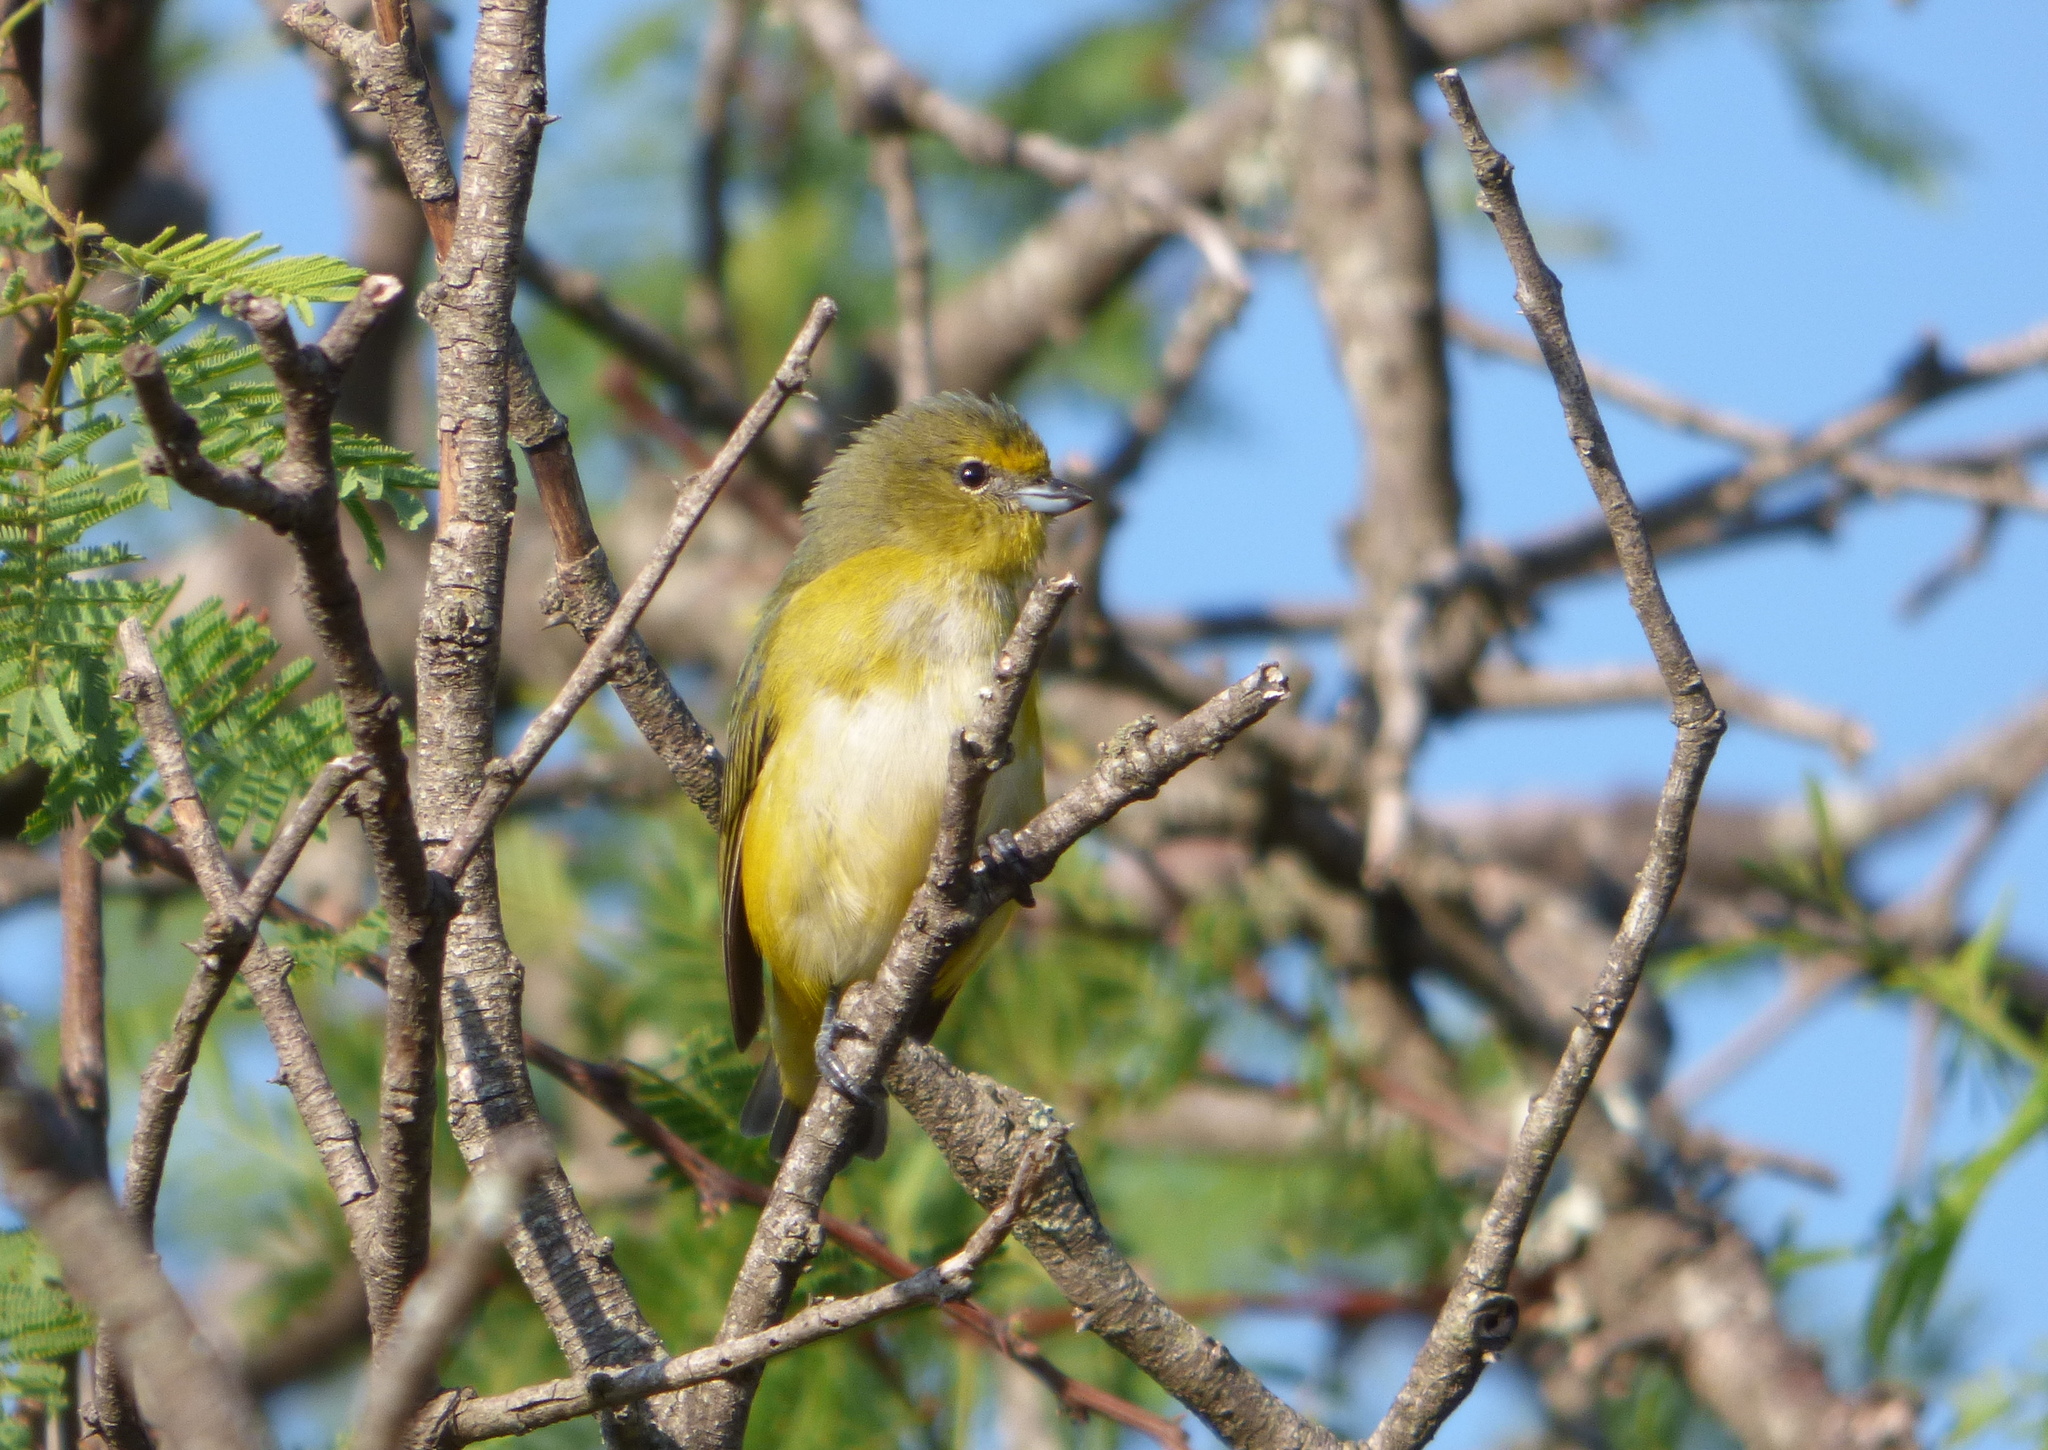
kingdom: Animalia
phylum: Chordata
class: Aves
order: Passeriformes
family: Fringillidae
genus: Euphonia
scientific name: Euphonia chlorotica
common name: Purple-throated euphonia
